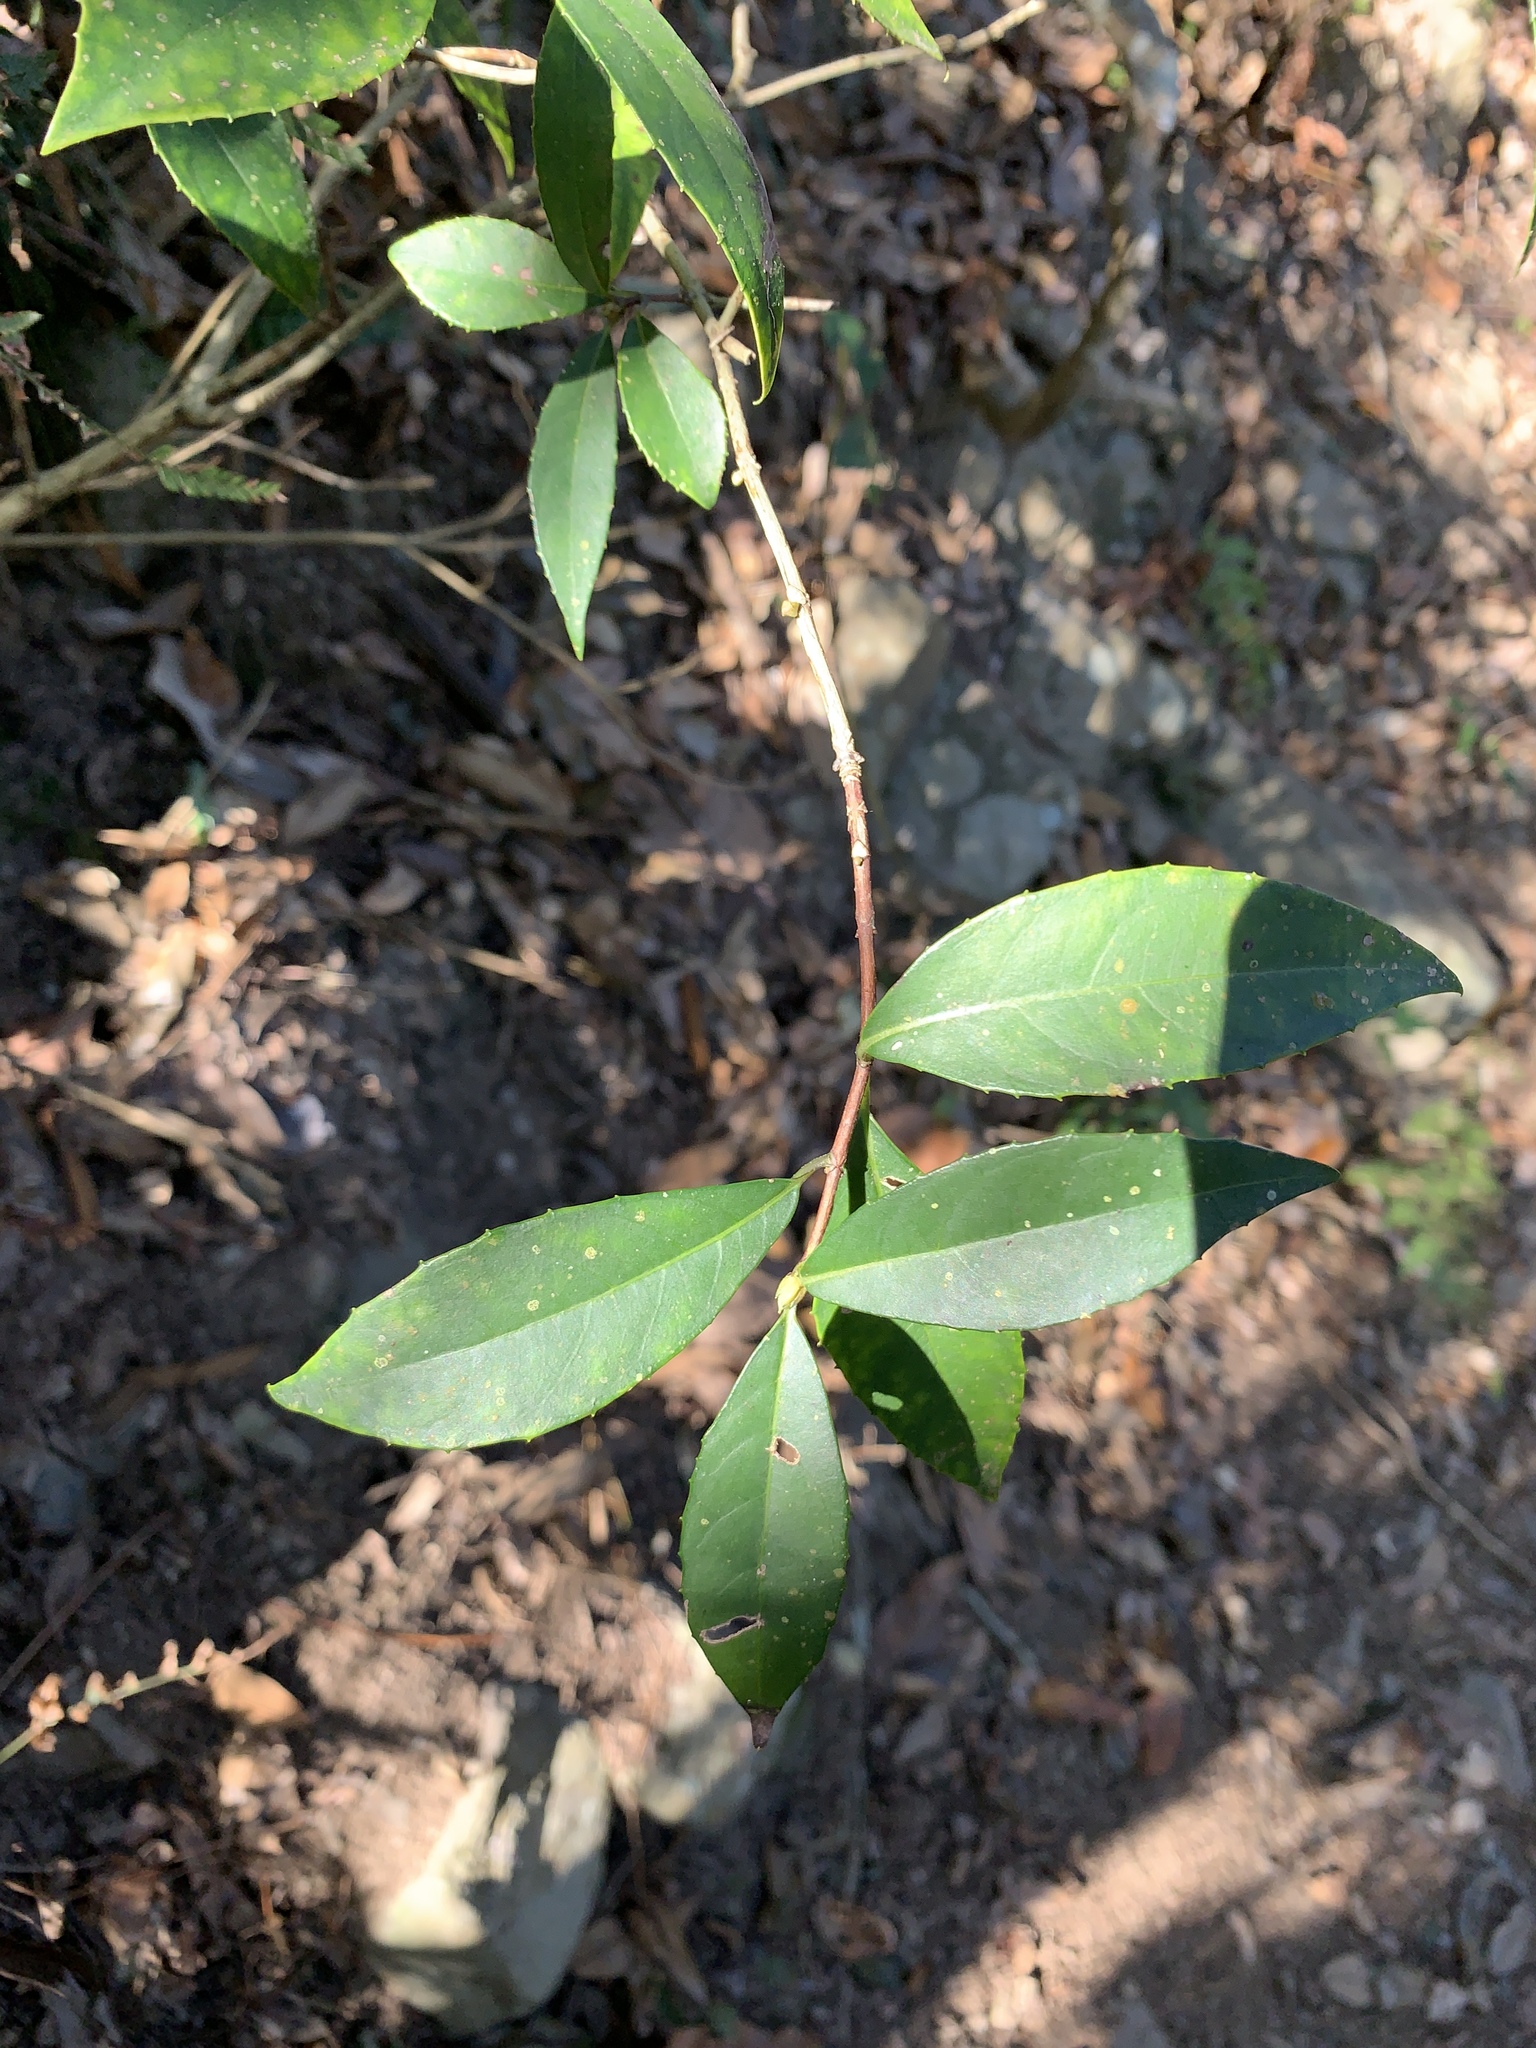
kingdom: Plantae
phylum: Tracheophyta
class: Magnoliopsida
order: Cornales
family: Hydrangeaceae
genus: Hydrangea
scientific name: Hydrangea chinensis
